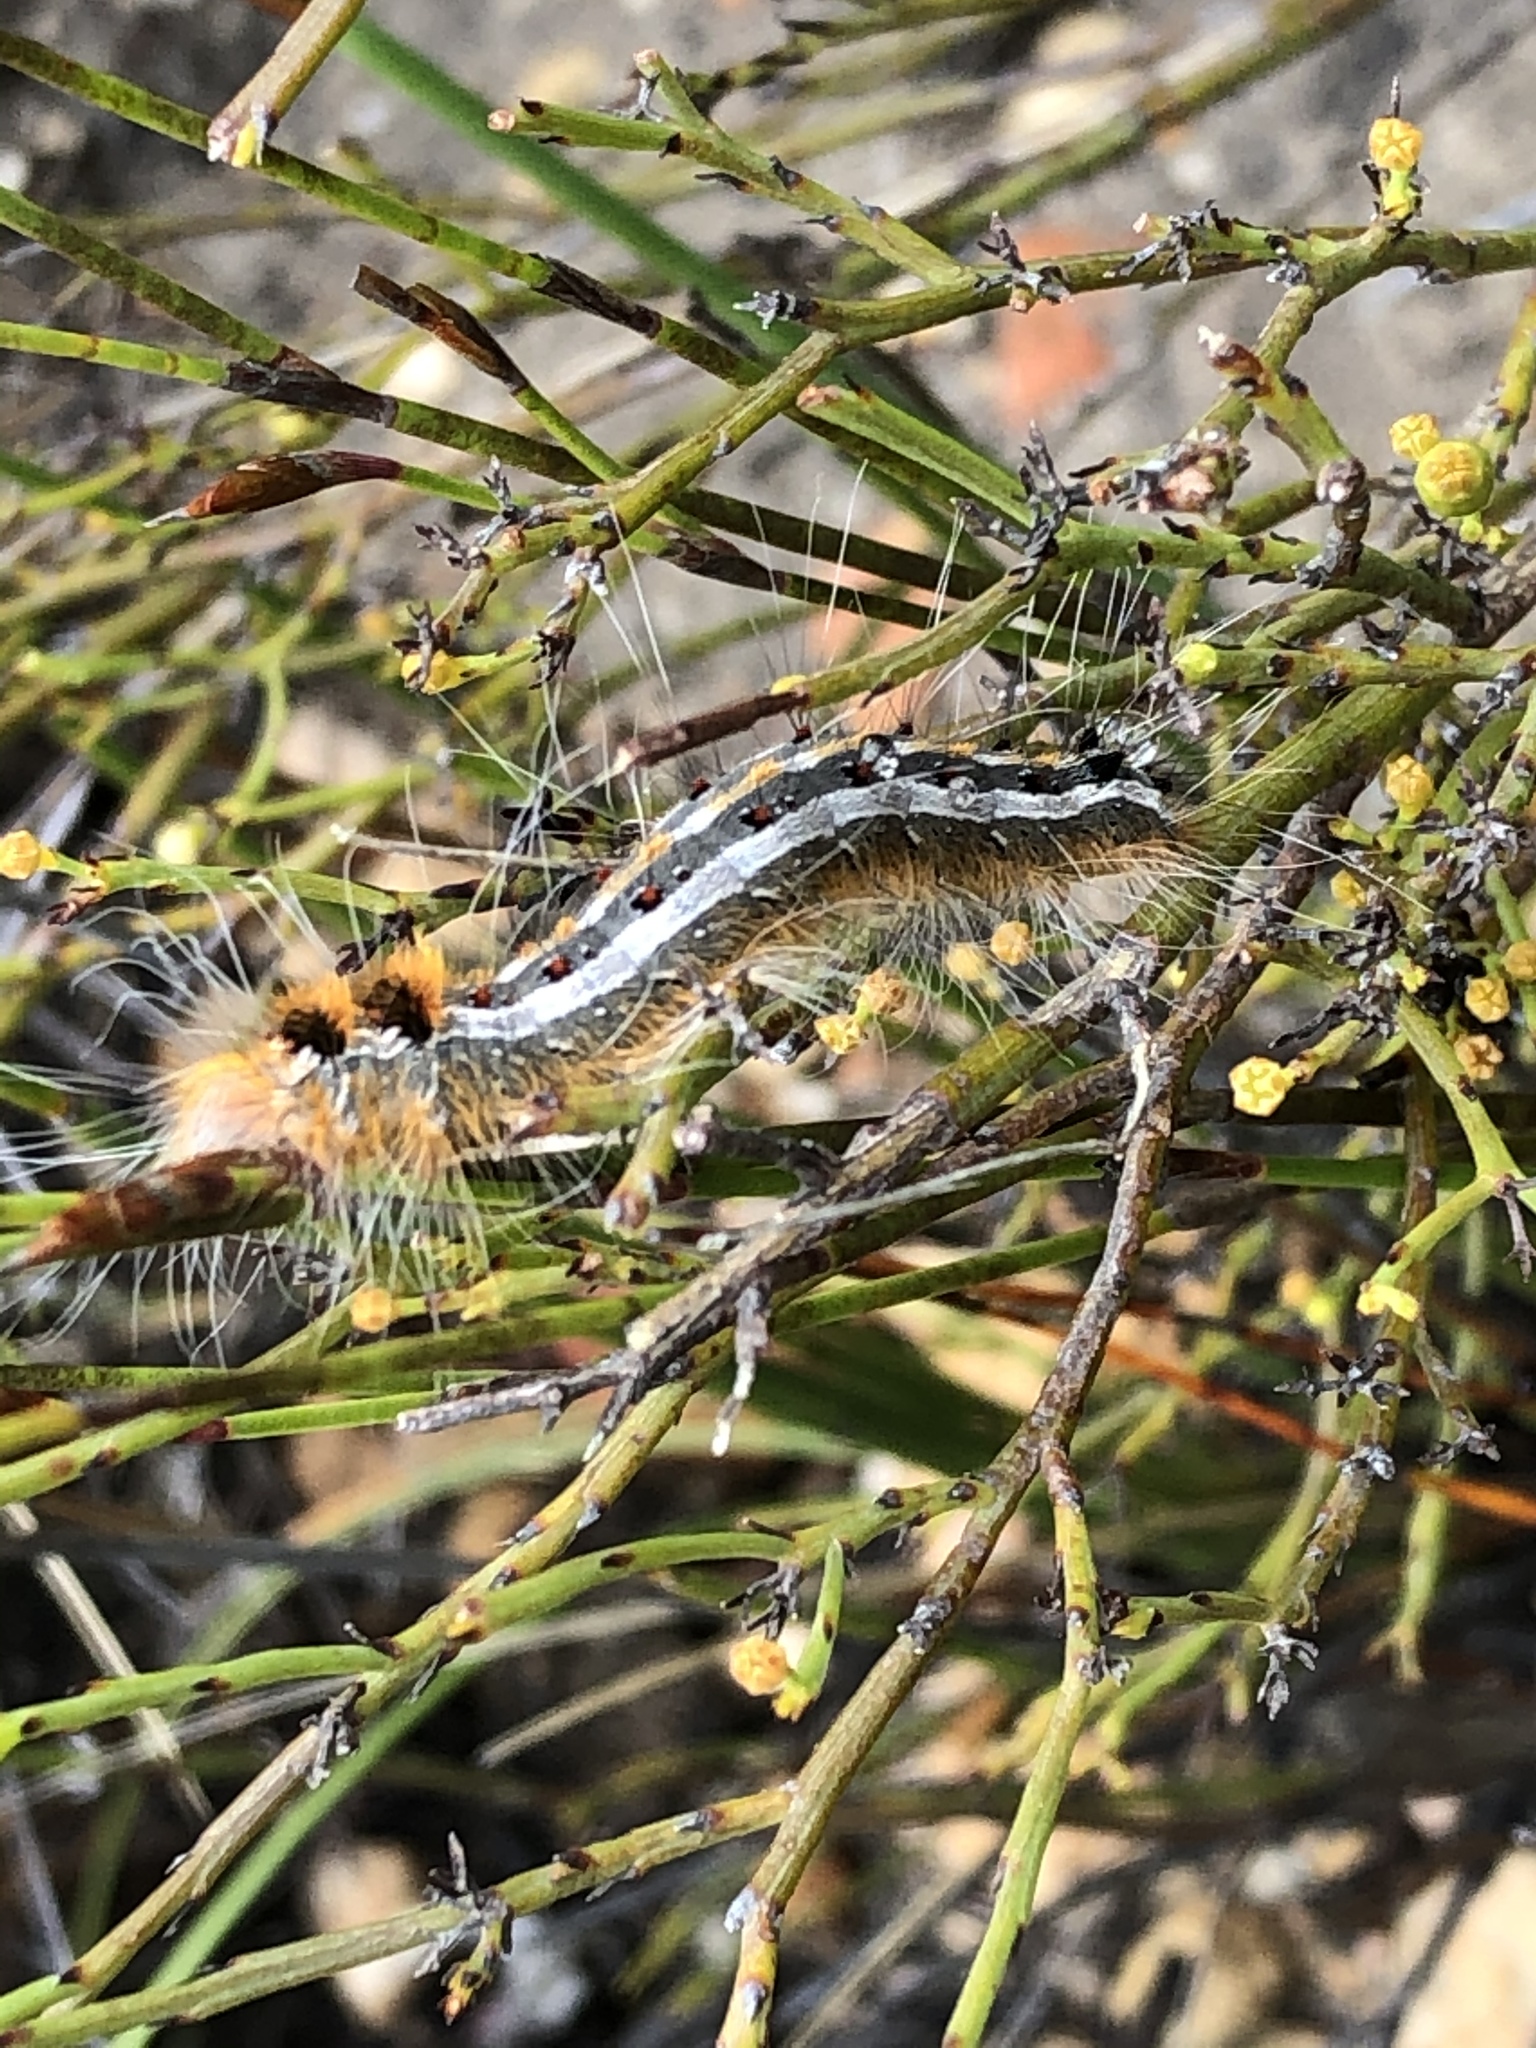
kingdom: Animalia
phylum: Arthropoda
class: Insecta
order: Lepidoptera
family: Lasiocampidae
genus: Streblote
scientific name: Streblote cristata
